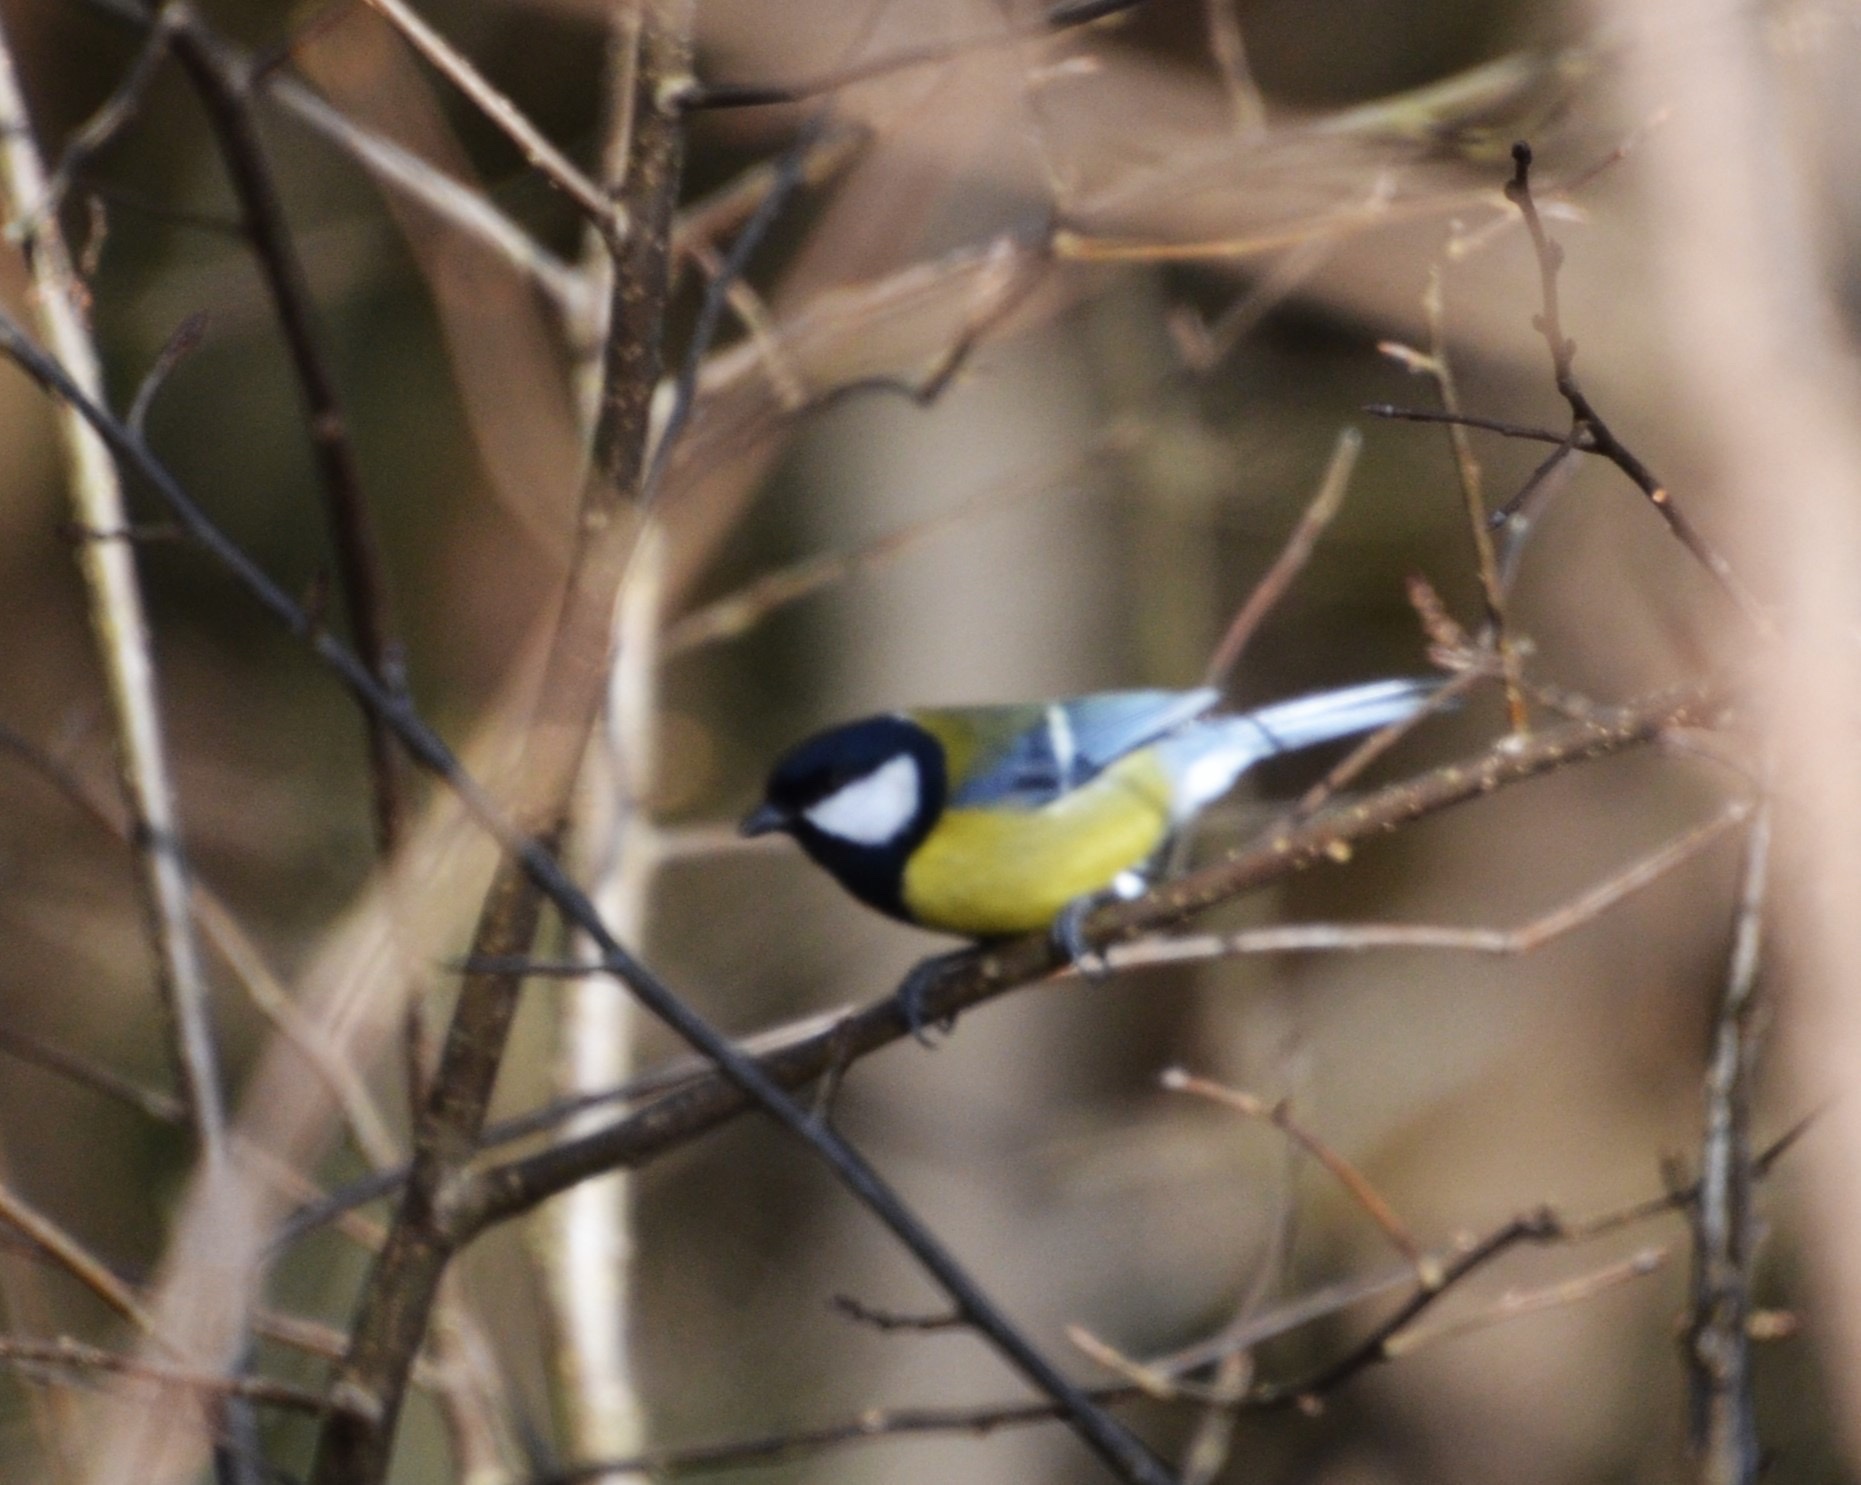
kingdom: Animalia
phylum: Chordata
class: Aves
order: Passeriformes
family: Paridae
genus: Parus
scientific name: Parus major
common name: Great tit
